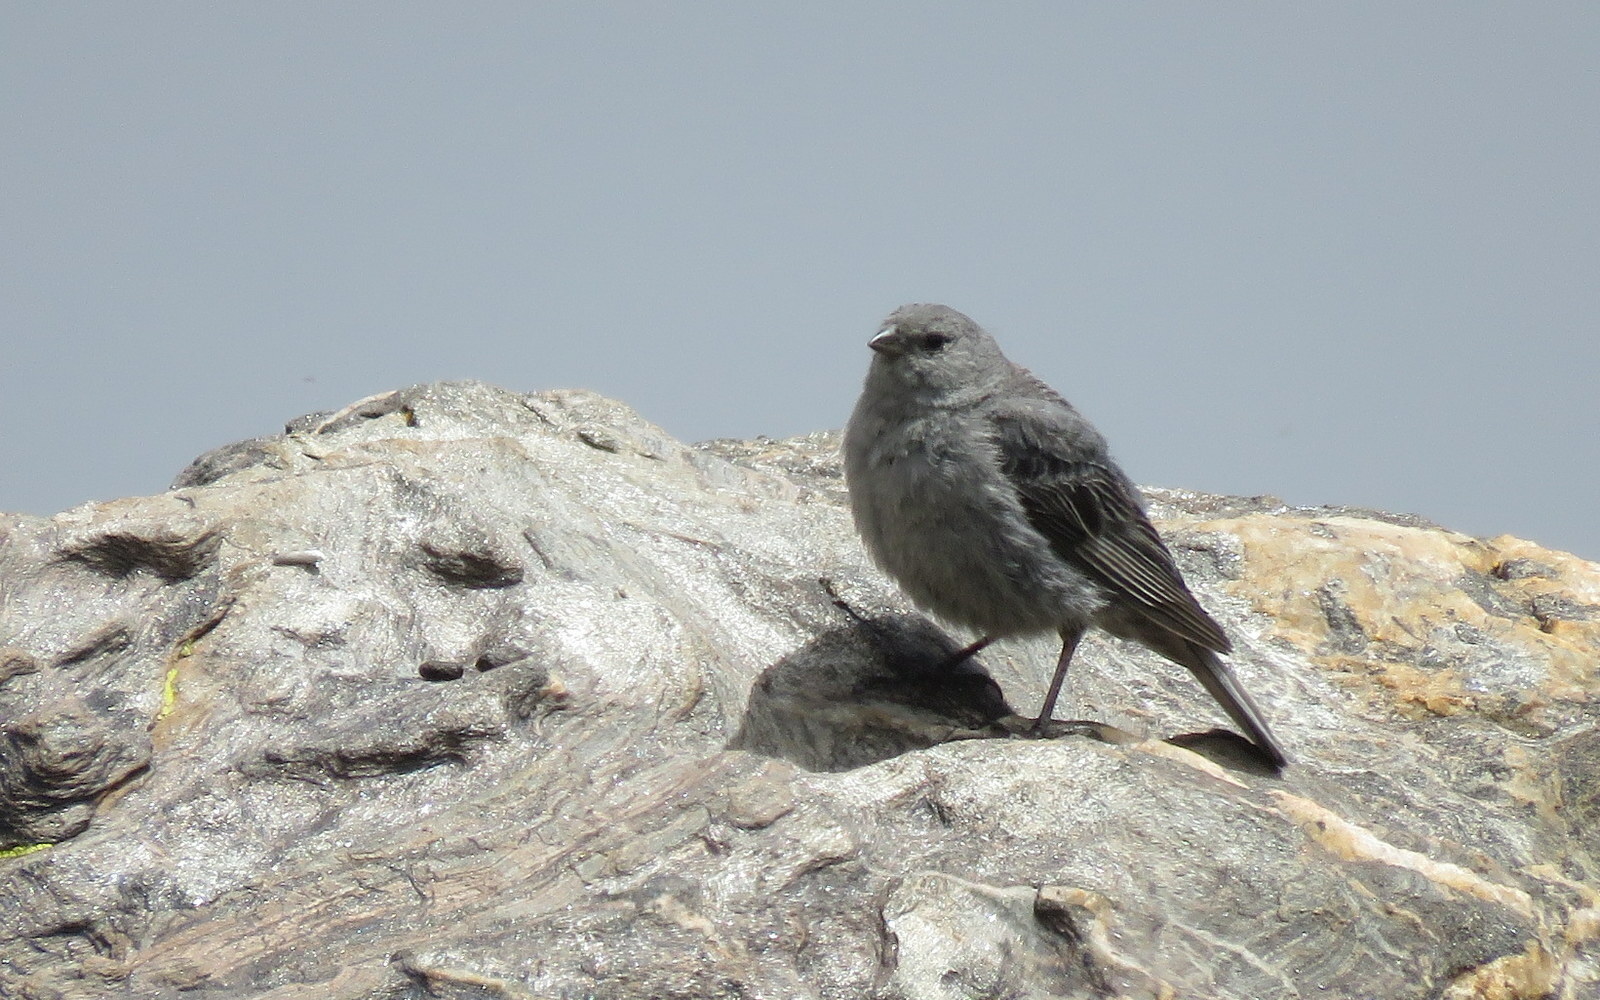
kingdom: Animalia
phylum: Chordata
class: Aves
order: Passeriformes
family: Thraupidae
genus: Geospizopsis
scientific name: Geospizopsis unicolor
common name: Plumbeous sierra-finch
